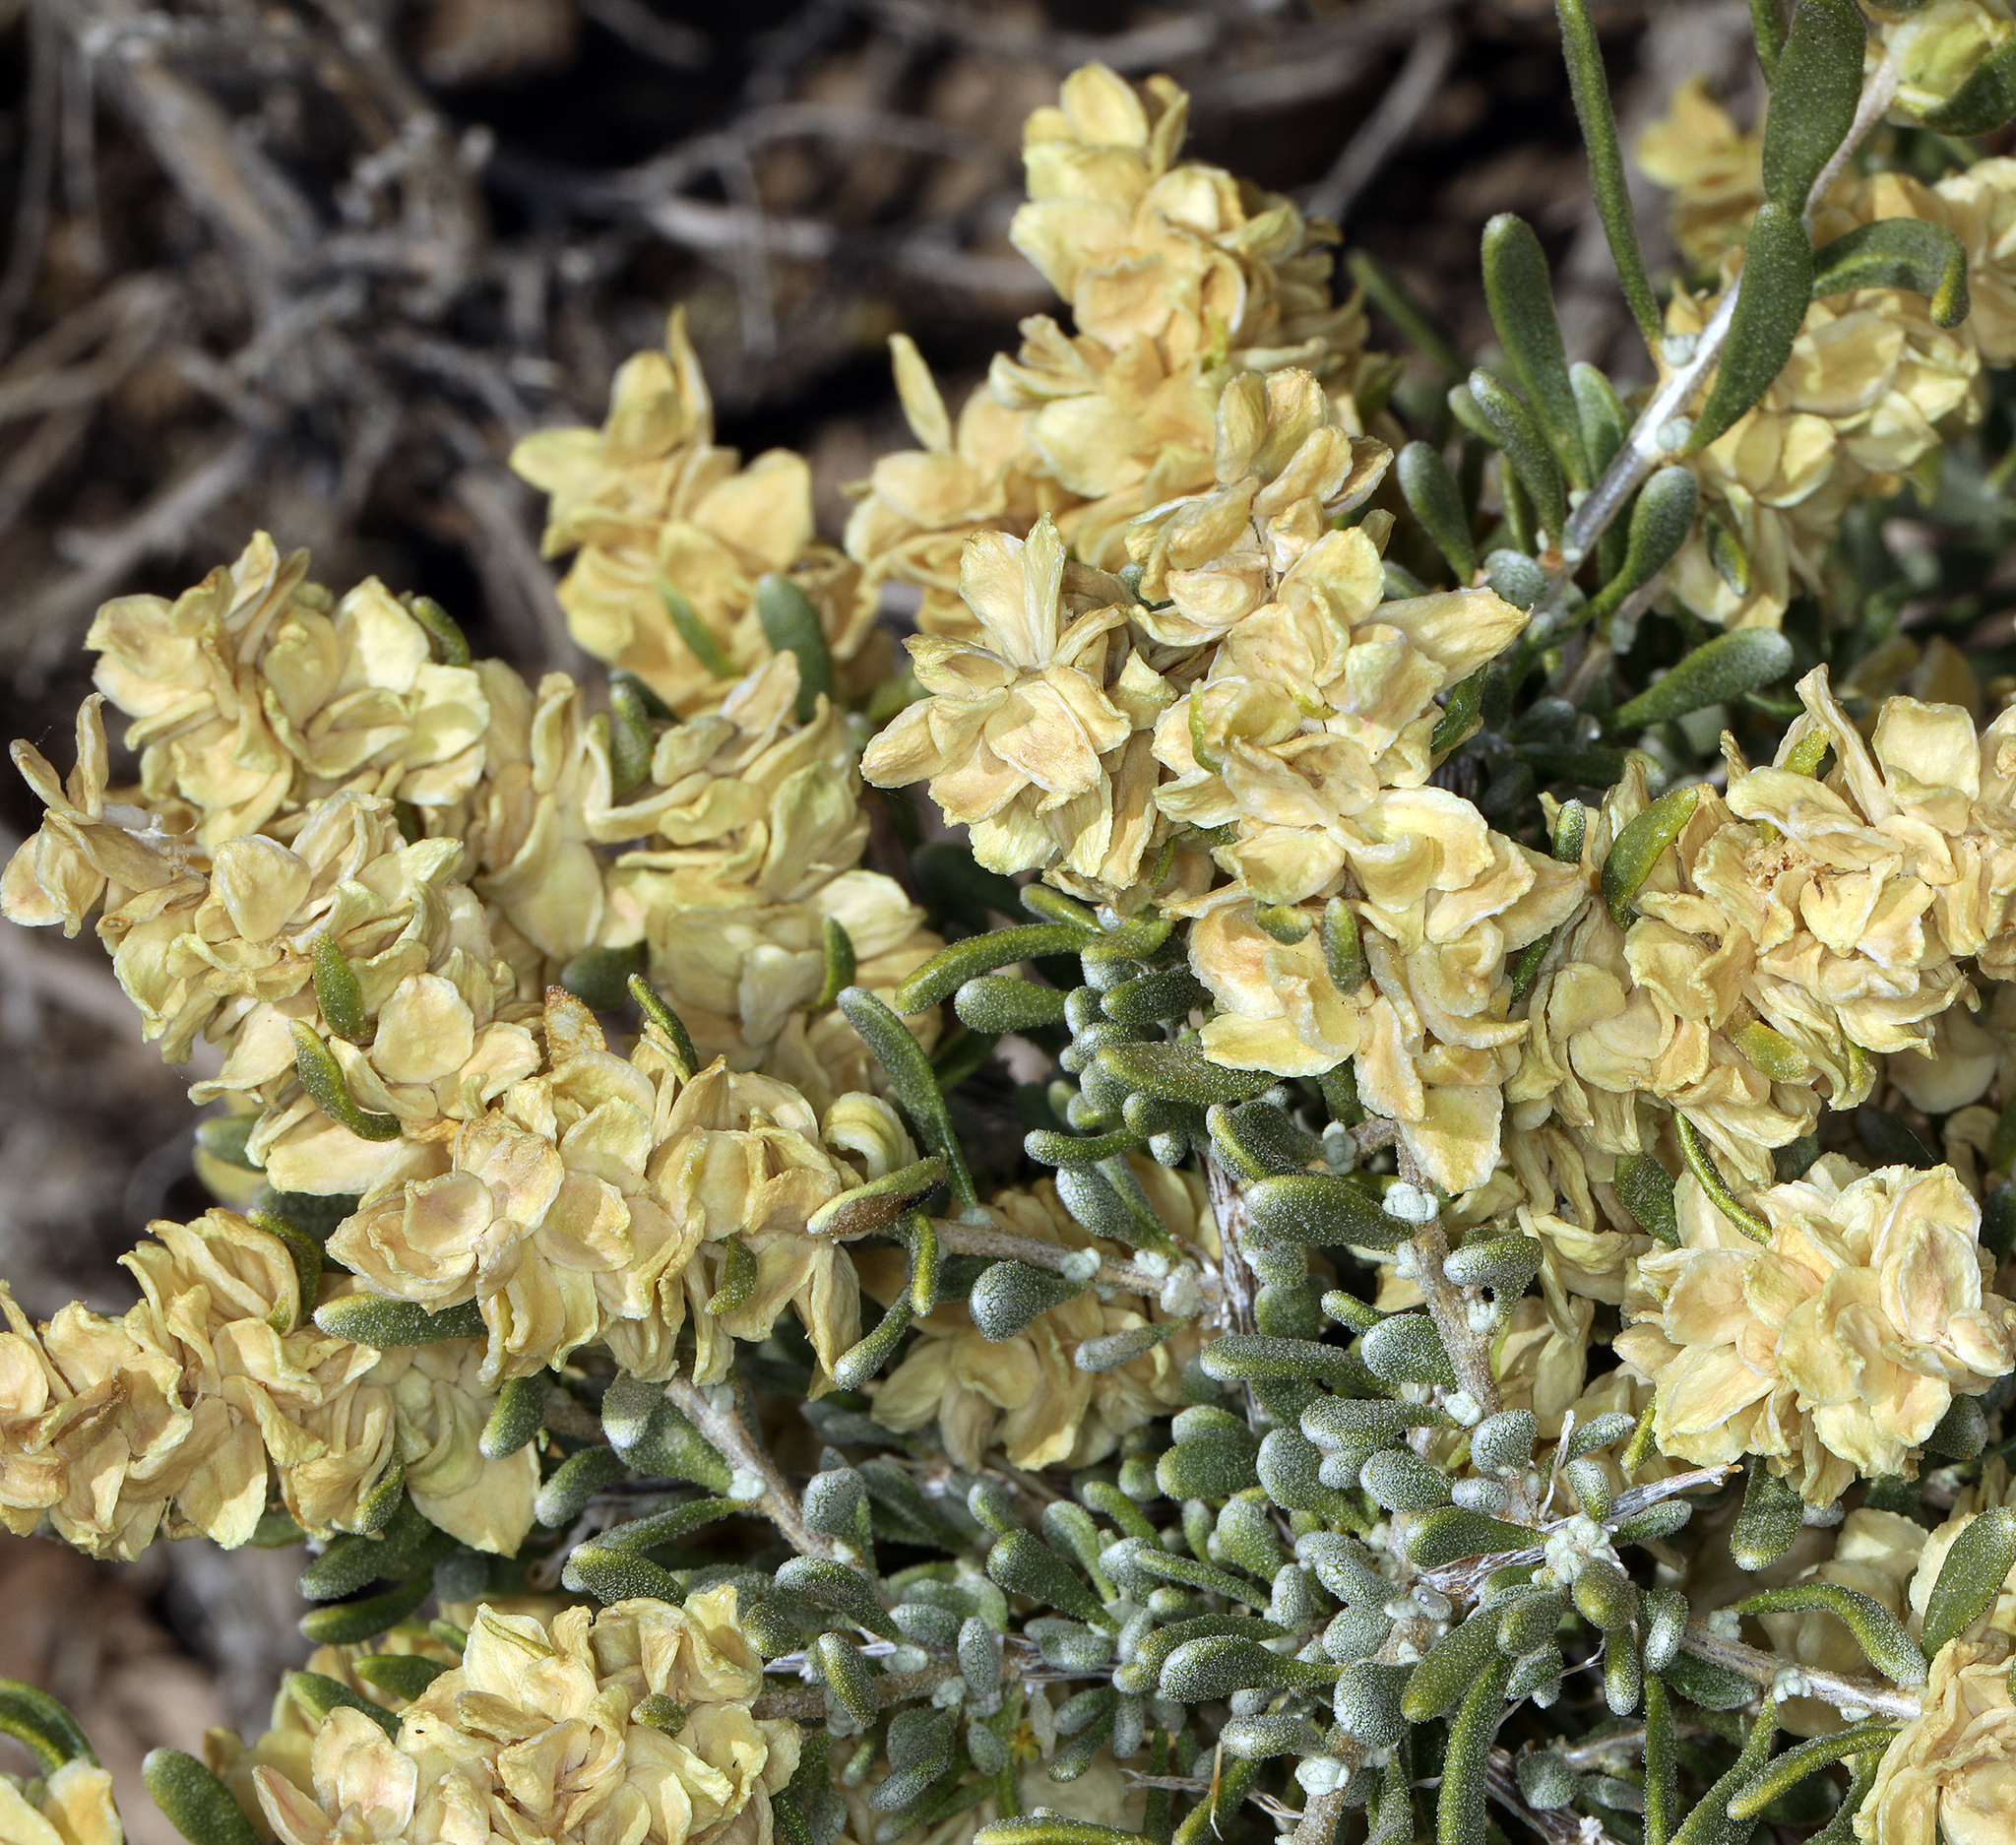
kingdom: Plantae
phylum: Tracheophyta
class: Magnoliopsida
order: Caryophyllales
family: Amaranthaceae
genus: Grayia
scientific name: Grayia spinosa
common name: Spiny hopsage
